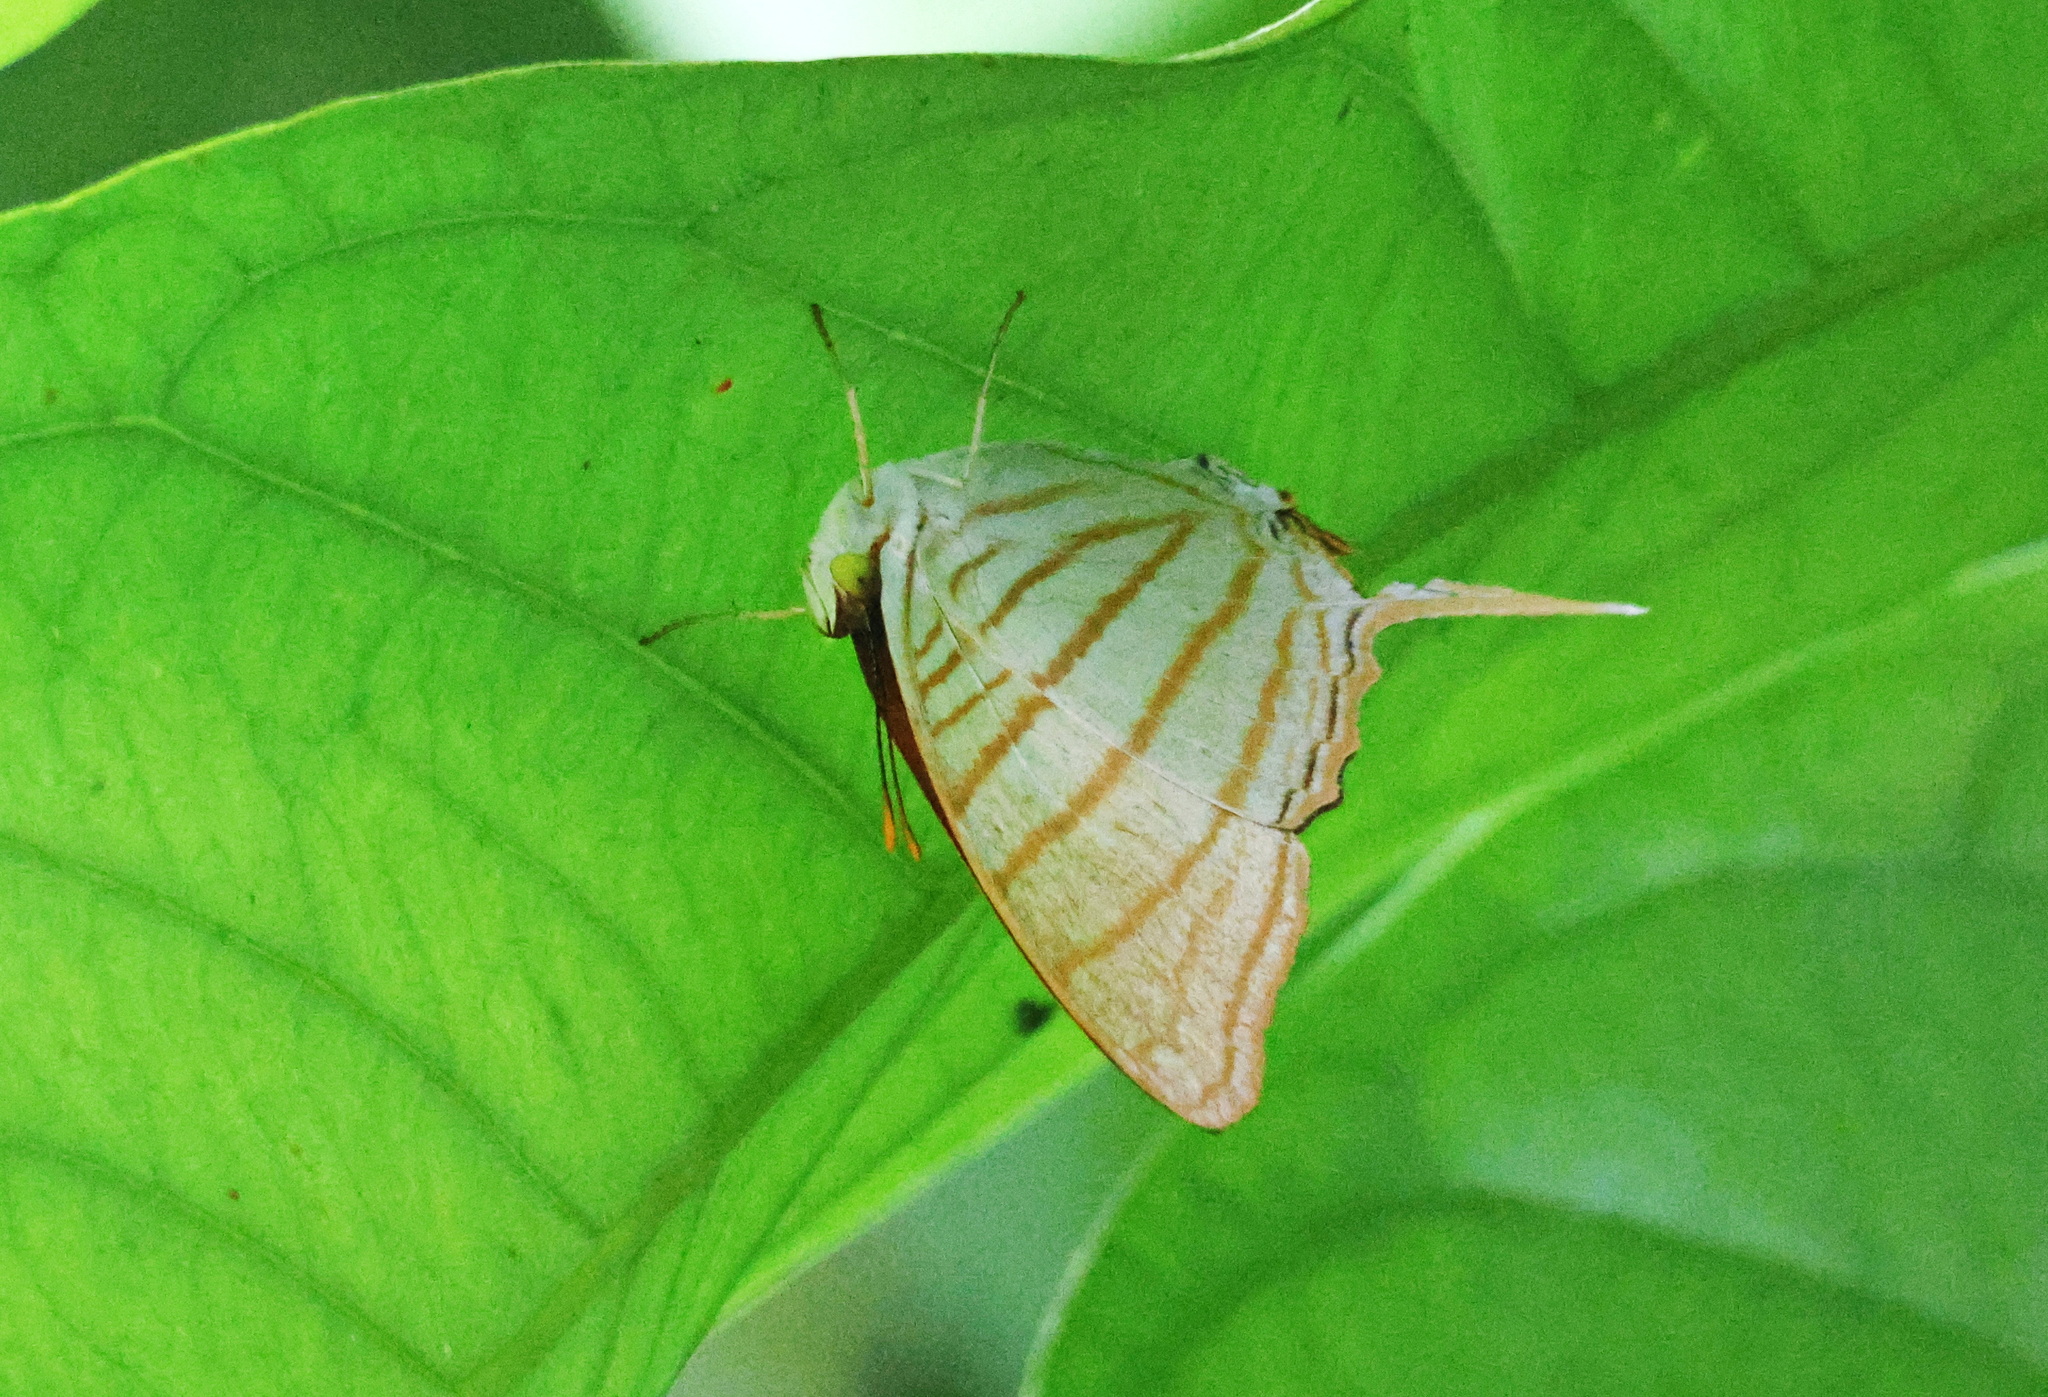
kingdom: Animalia
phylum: Arthropoda
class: Insecta
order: Lepidoptera
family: Nymphalidae
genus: Marpesia
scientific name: Marpesia berania
